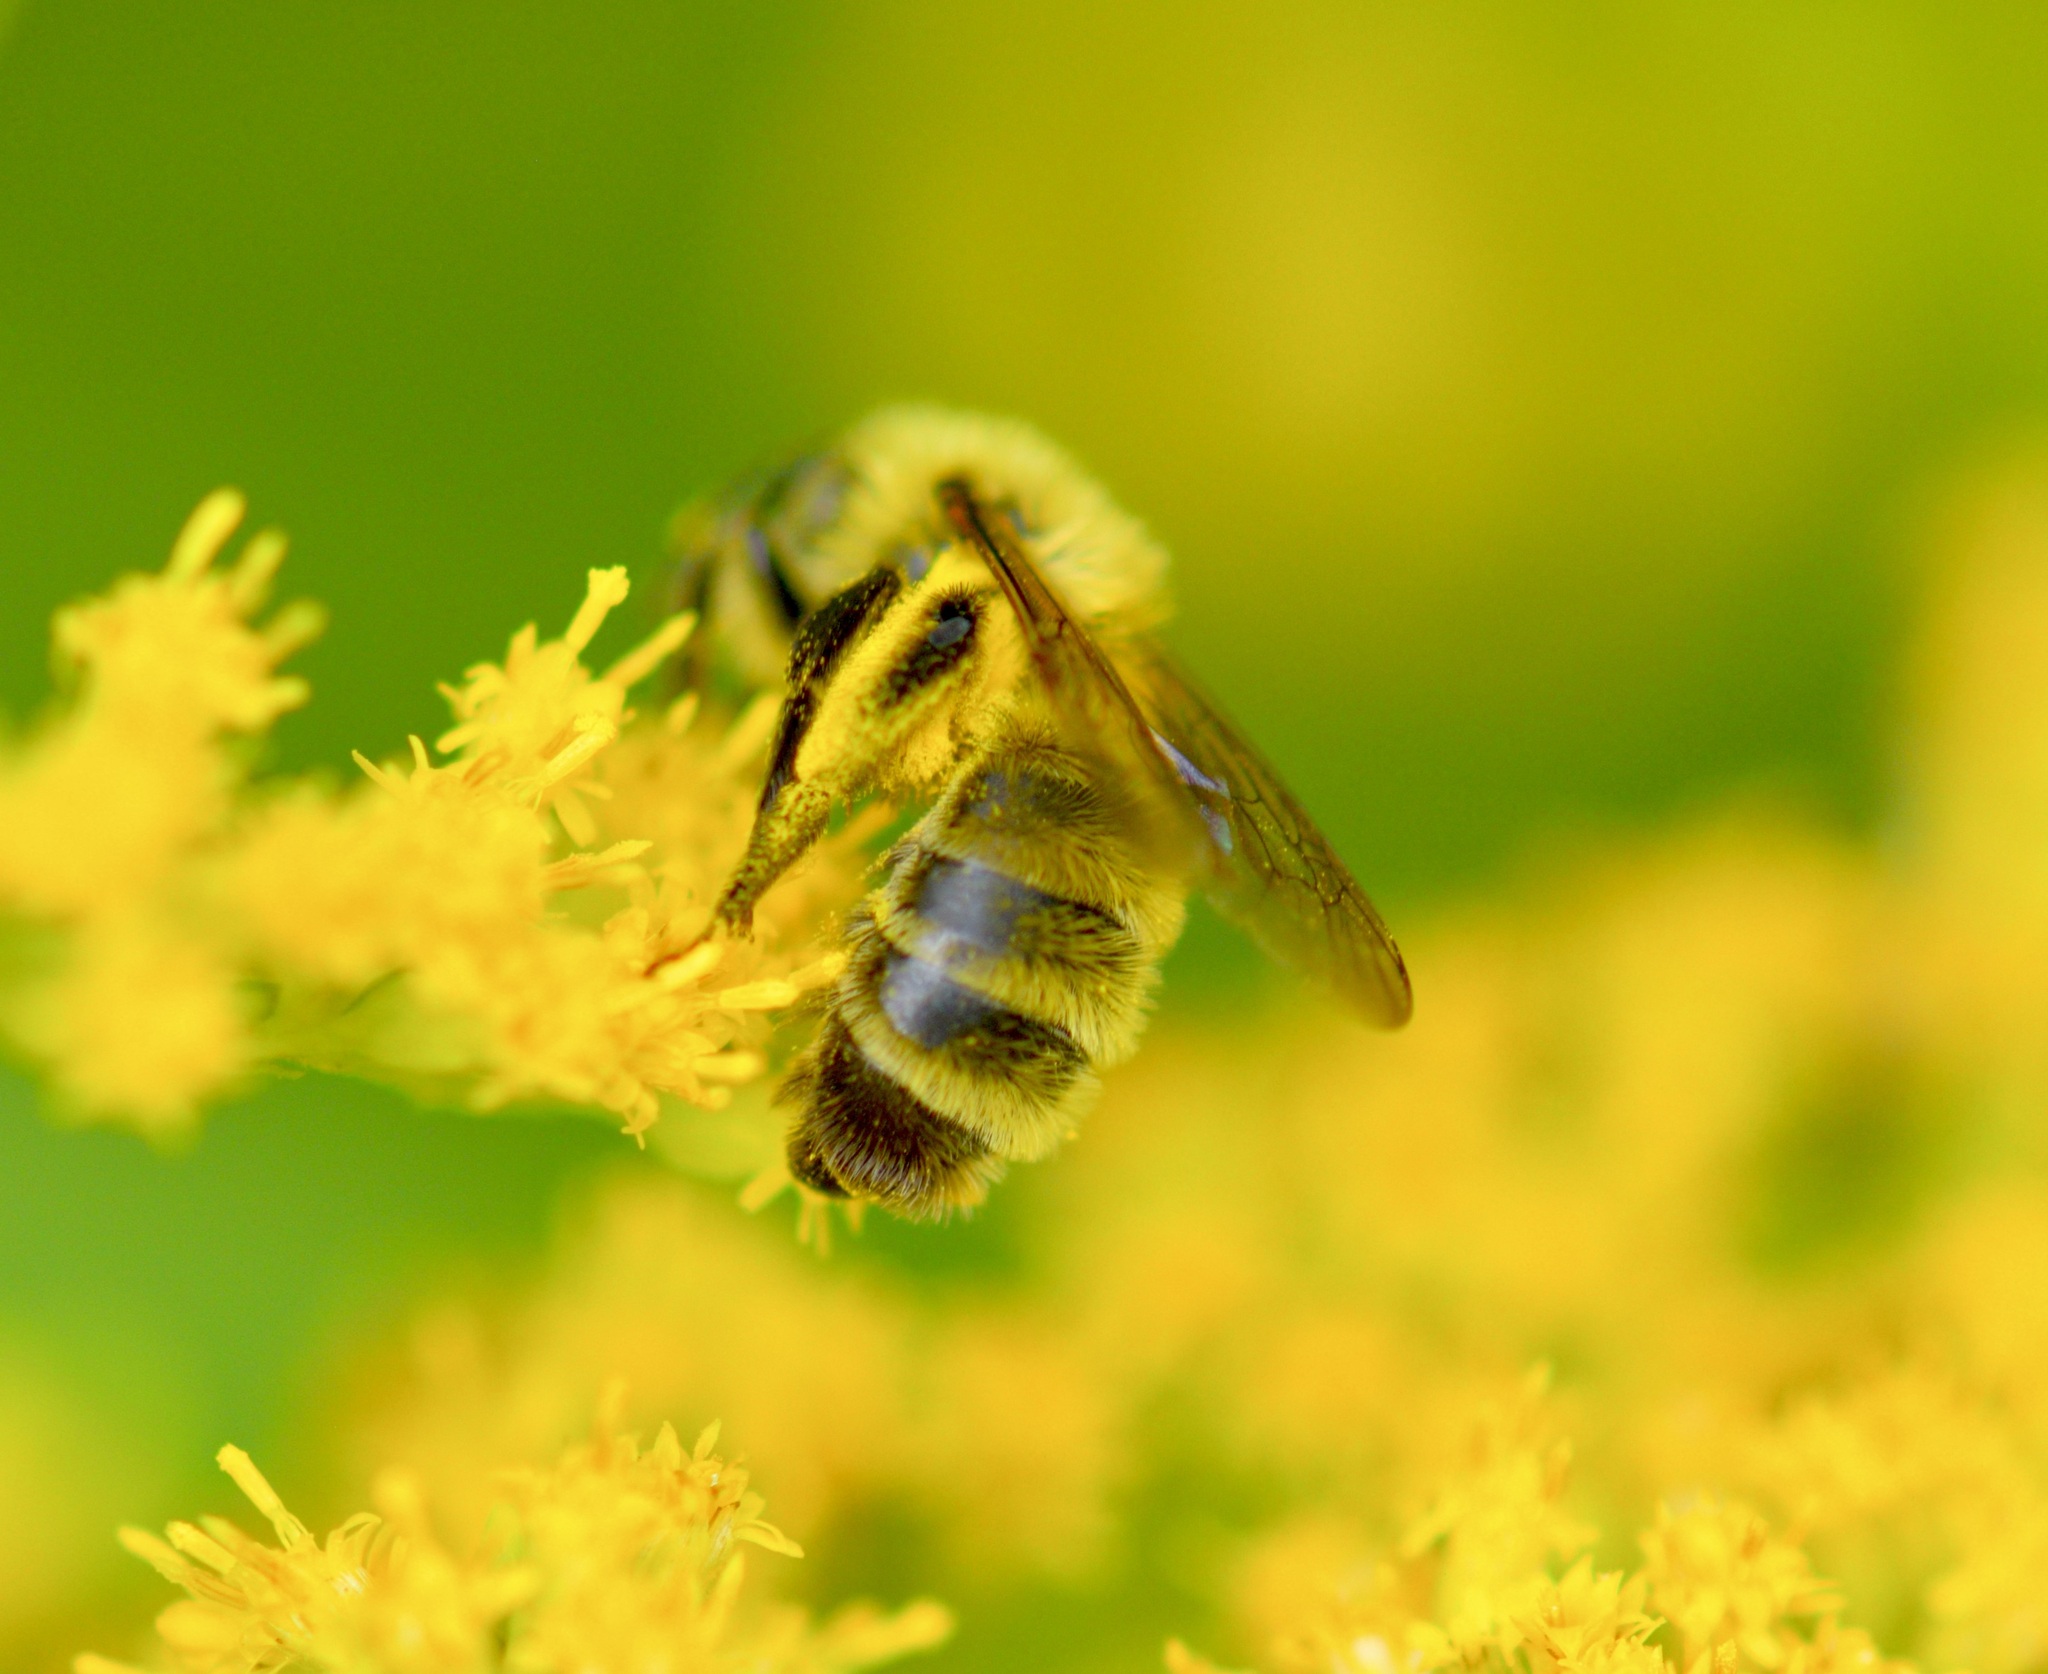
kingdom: Animalia
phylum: Arthropoda
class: Insecta
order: Hymenoptera
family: Andrenidae
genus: Andrena
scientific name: Andrena hirticincta
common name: Hairy-banded mining bee
